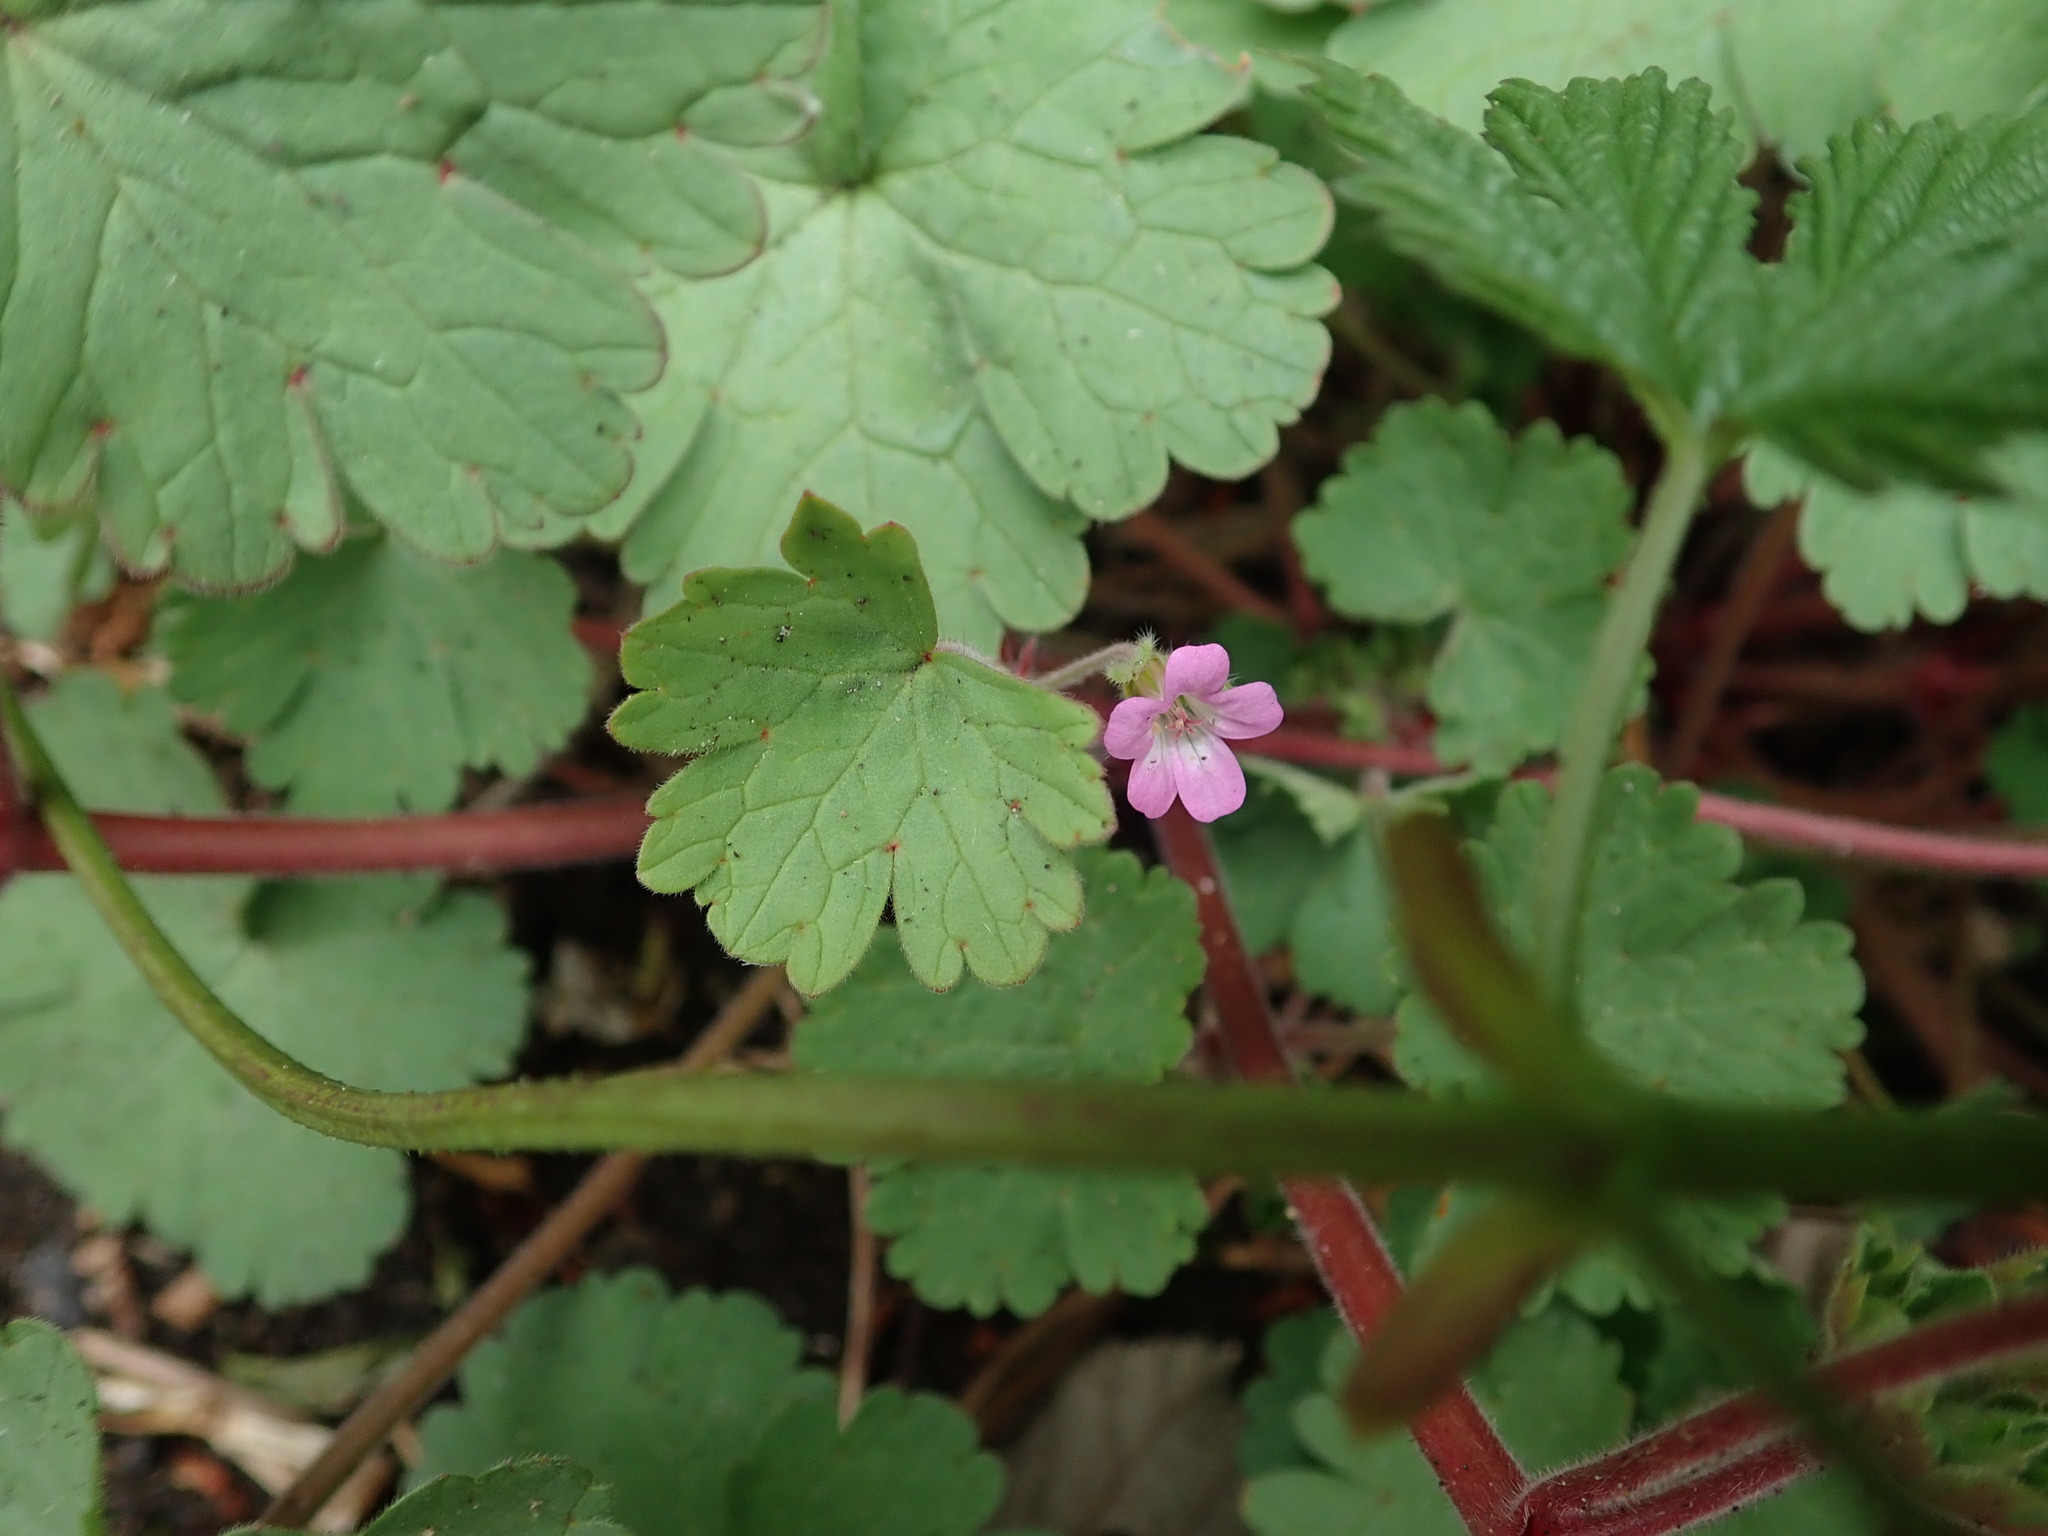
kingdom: Plantae
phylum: Tracheophyta
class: Magnoliopsida
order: Geraniales
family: Geraniaceae
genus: Geranium
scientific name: Geranium rotundifolium
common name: Round-leaved crane's-bill
